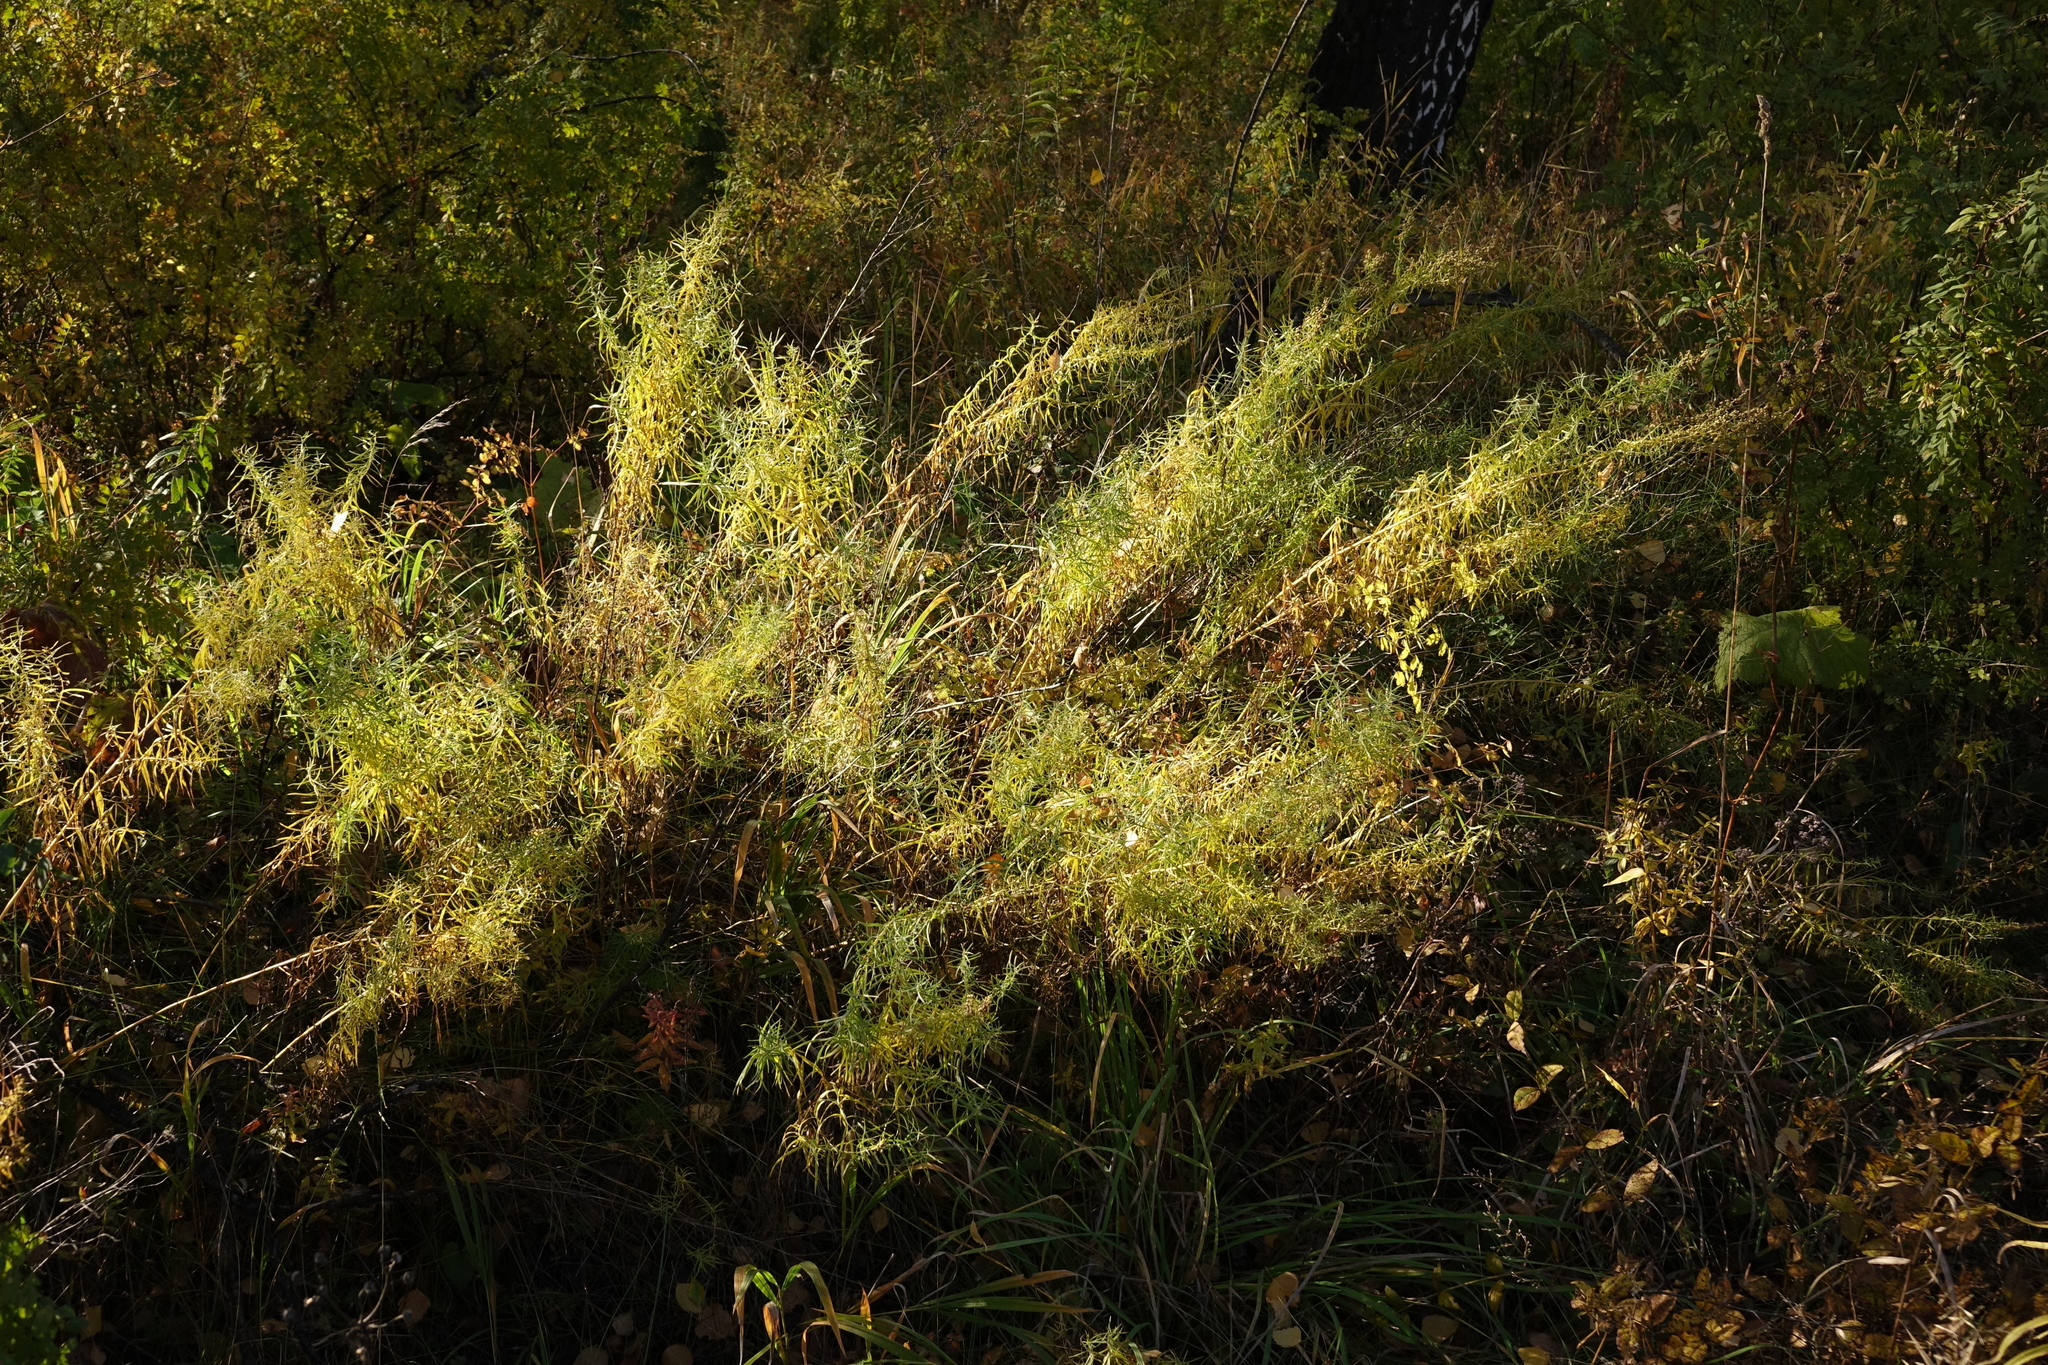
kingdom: Plantae
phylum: Tracheophyta
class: Magnoliopsida
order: Asterales
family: Asteraceae
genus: Artemisia
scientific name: Artemisia dracunculus
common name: Tarragon
